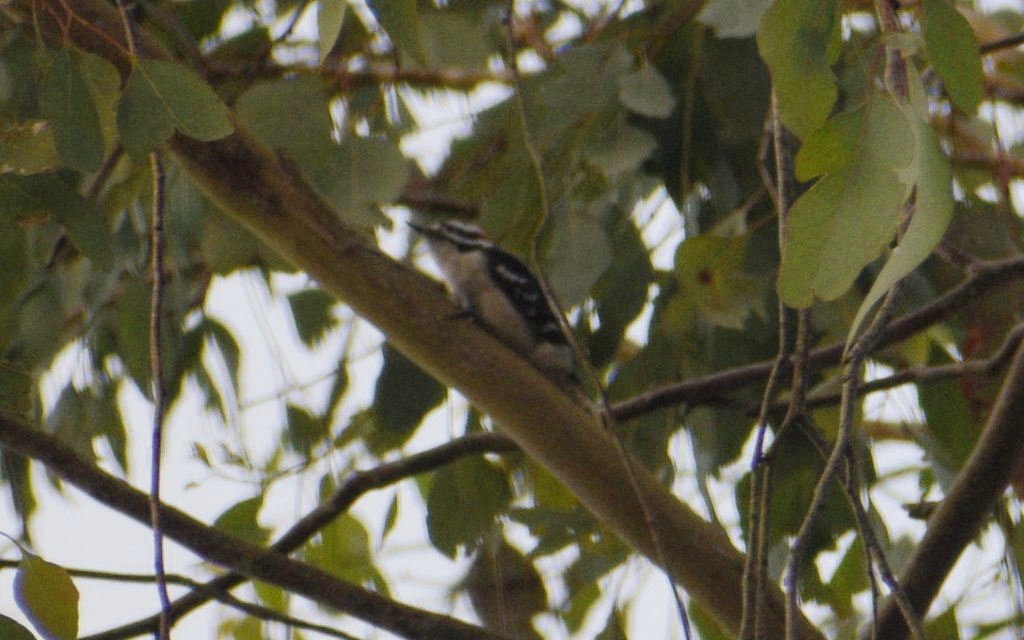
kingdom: Animalia
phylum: Chordata
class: Aves
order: Piciformes
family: Picidae
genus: Dryobates
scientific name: Dryobates pubescens
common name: Downy woodpecker
